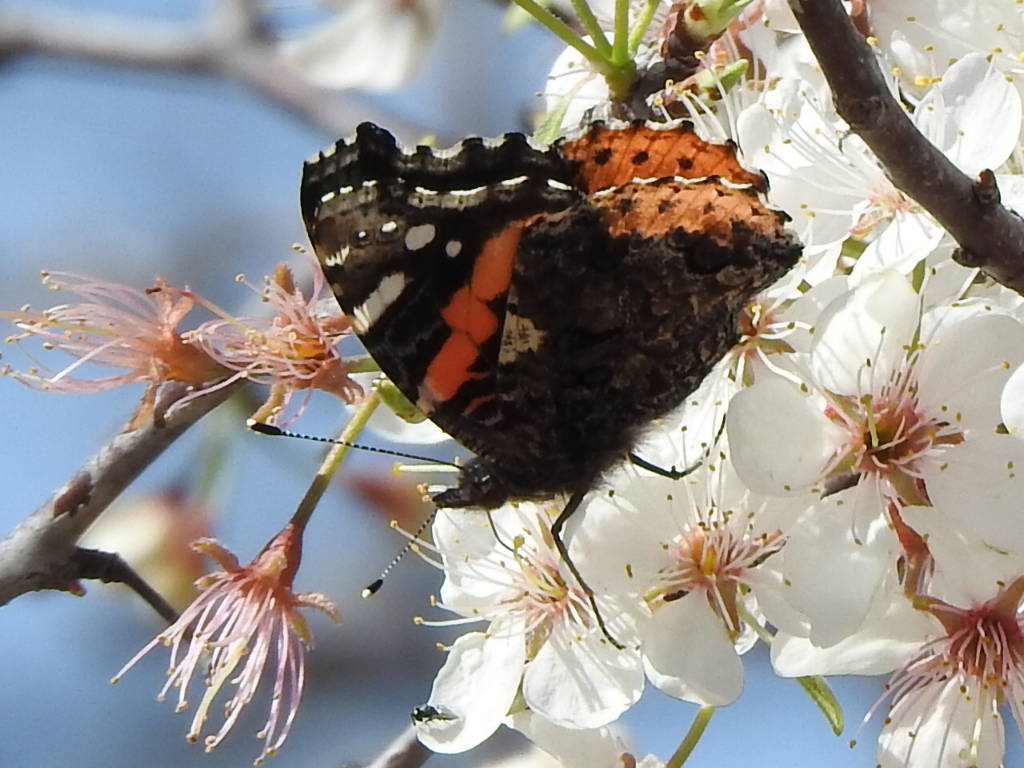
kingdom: Animalia
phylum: Arthropoda
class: Insecta
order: Lepidoptera
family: Nymphalidae
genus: Vanessa
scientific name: Vanessa atalanta
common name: Red admiral
